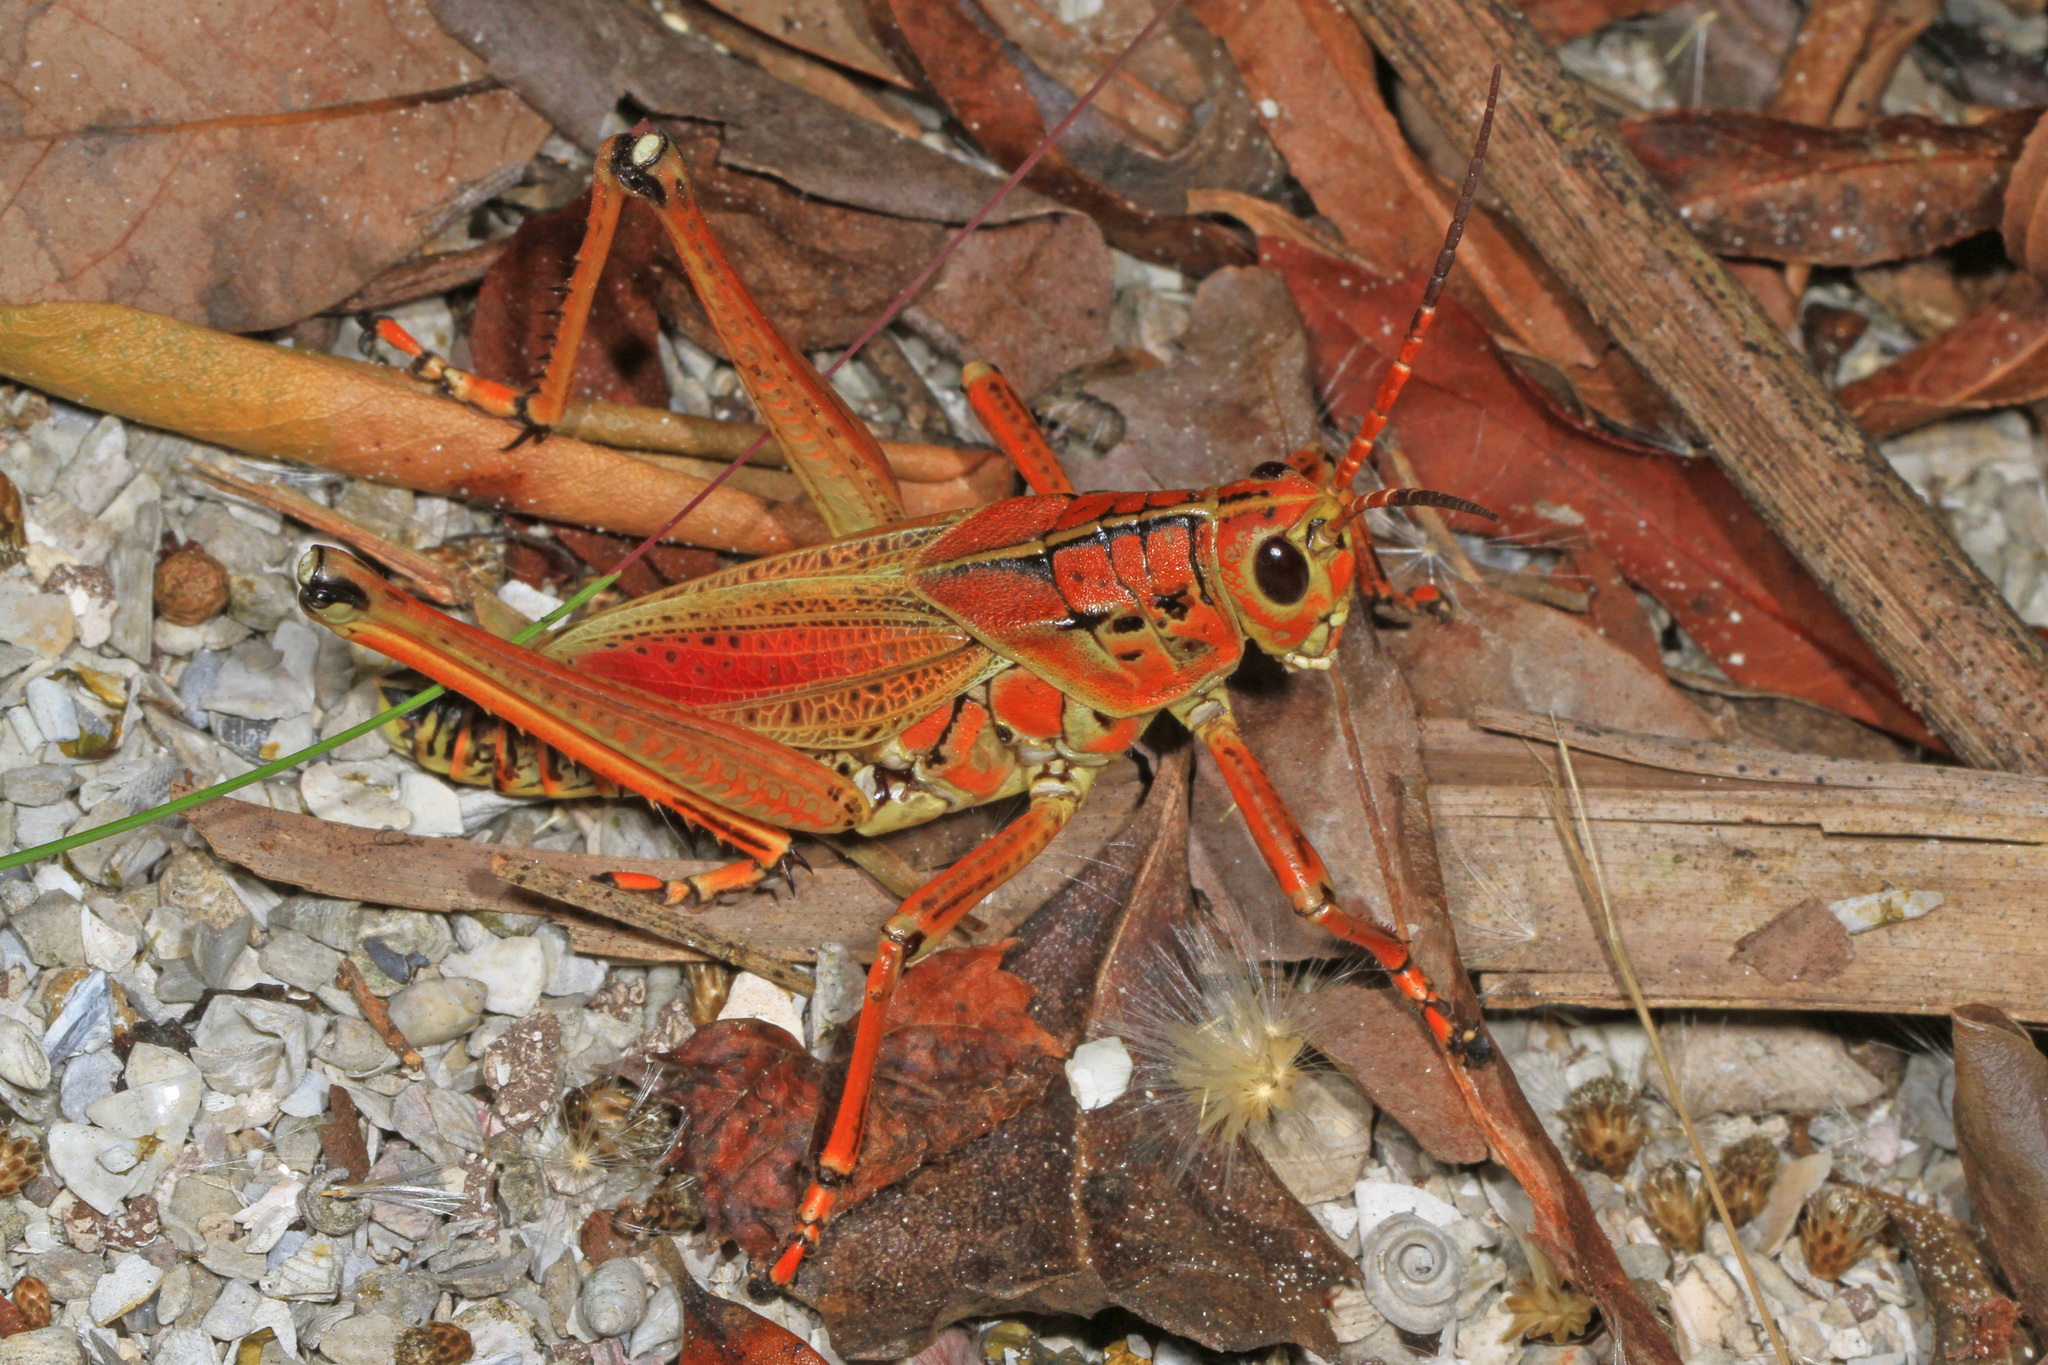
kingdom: Animalia
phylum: Arthropoda
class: Insecta
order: Orthoptera
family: Romaleidae
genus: Romalea
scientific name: Romalea microptera
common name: Eastern lubber grasshopper
